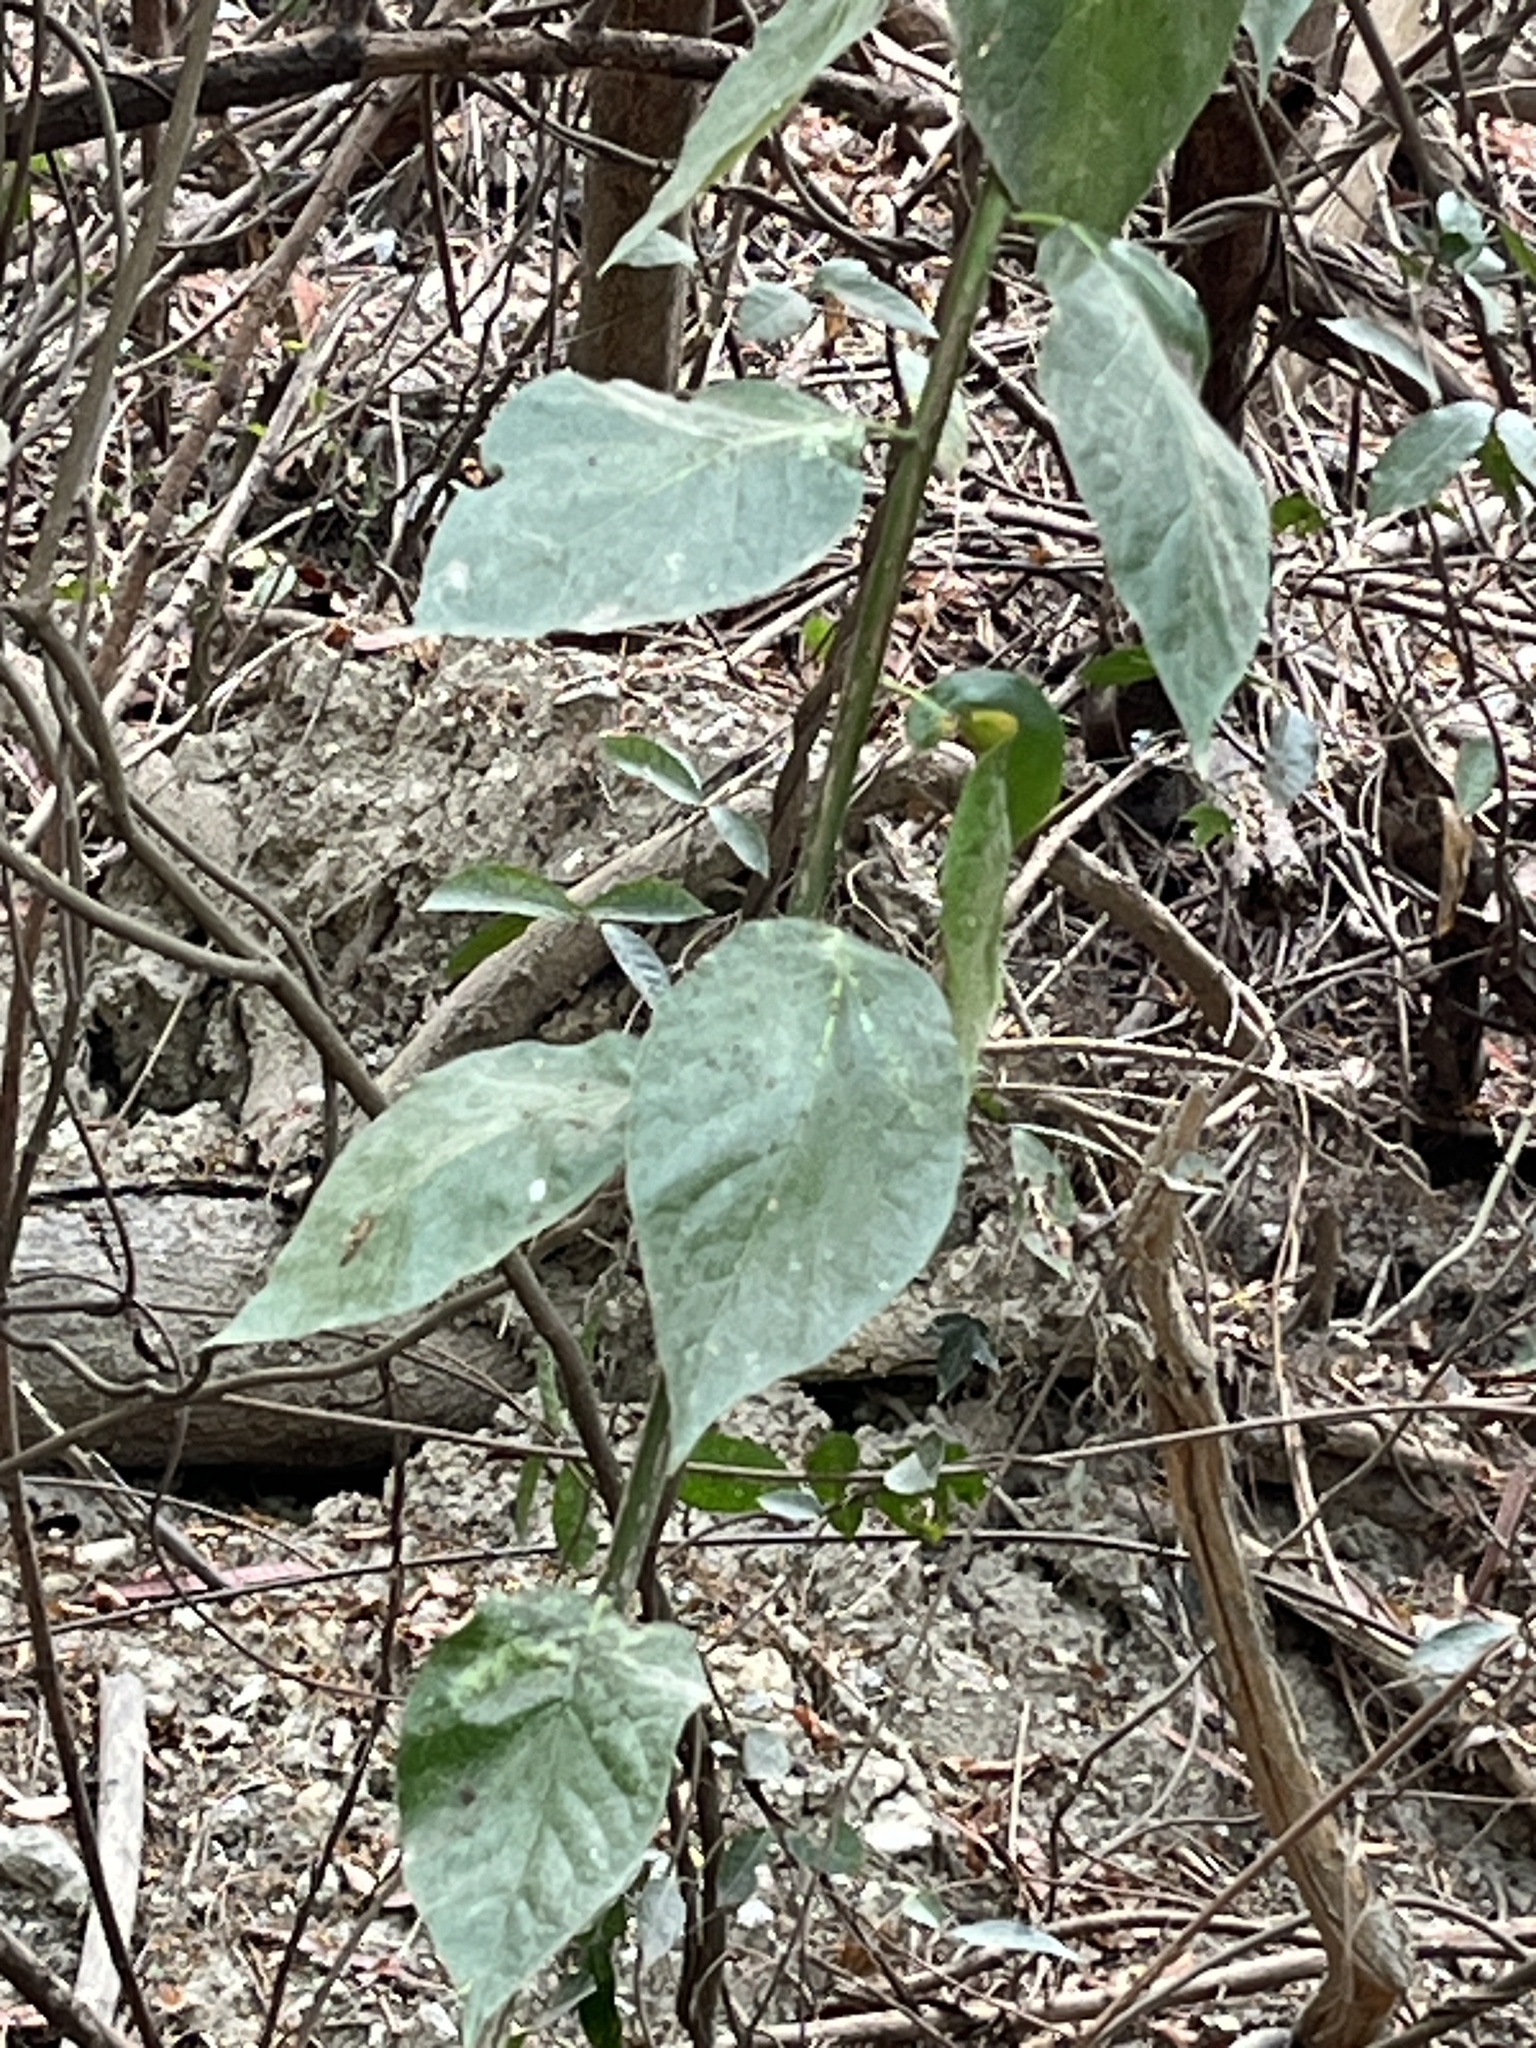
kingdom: Plantae
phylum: Tracheophyta
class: Magnoliopsida
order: Boraginales
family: Ehretiaceae
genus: Ehretia
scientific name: Ehretia resinosa
